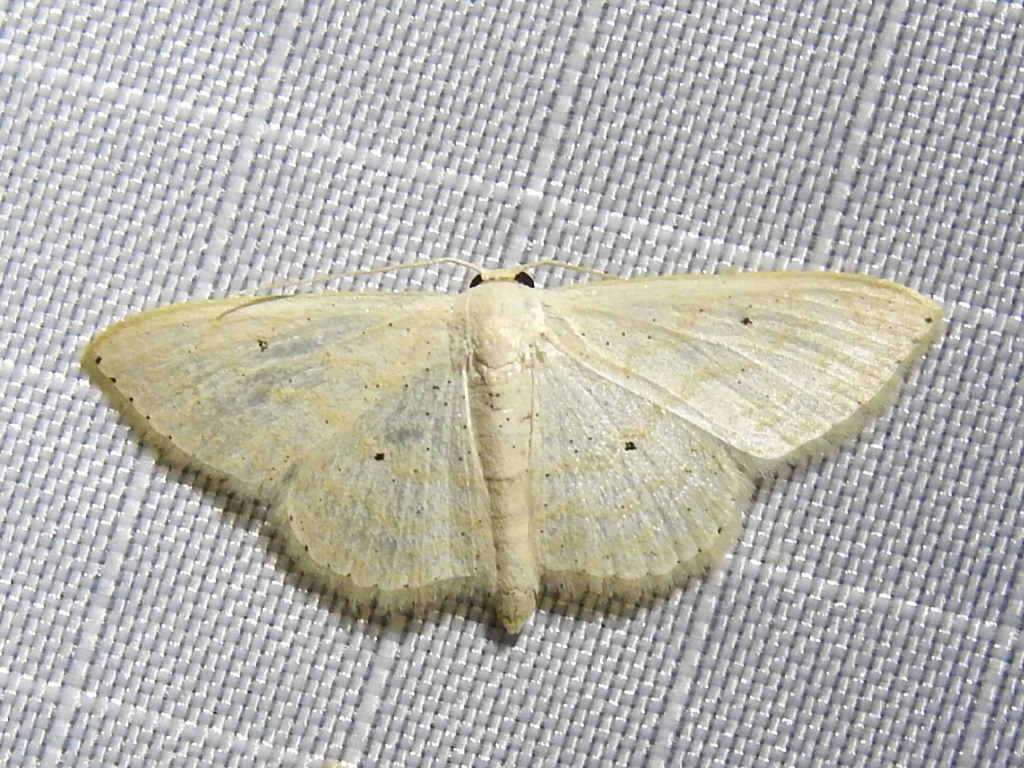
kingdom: Animalia
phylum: Arthropoda
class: Insecta
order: Lepidoptera
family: Geometridae
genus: Scopula
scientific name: Scopula benitaria
